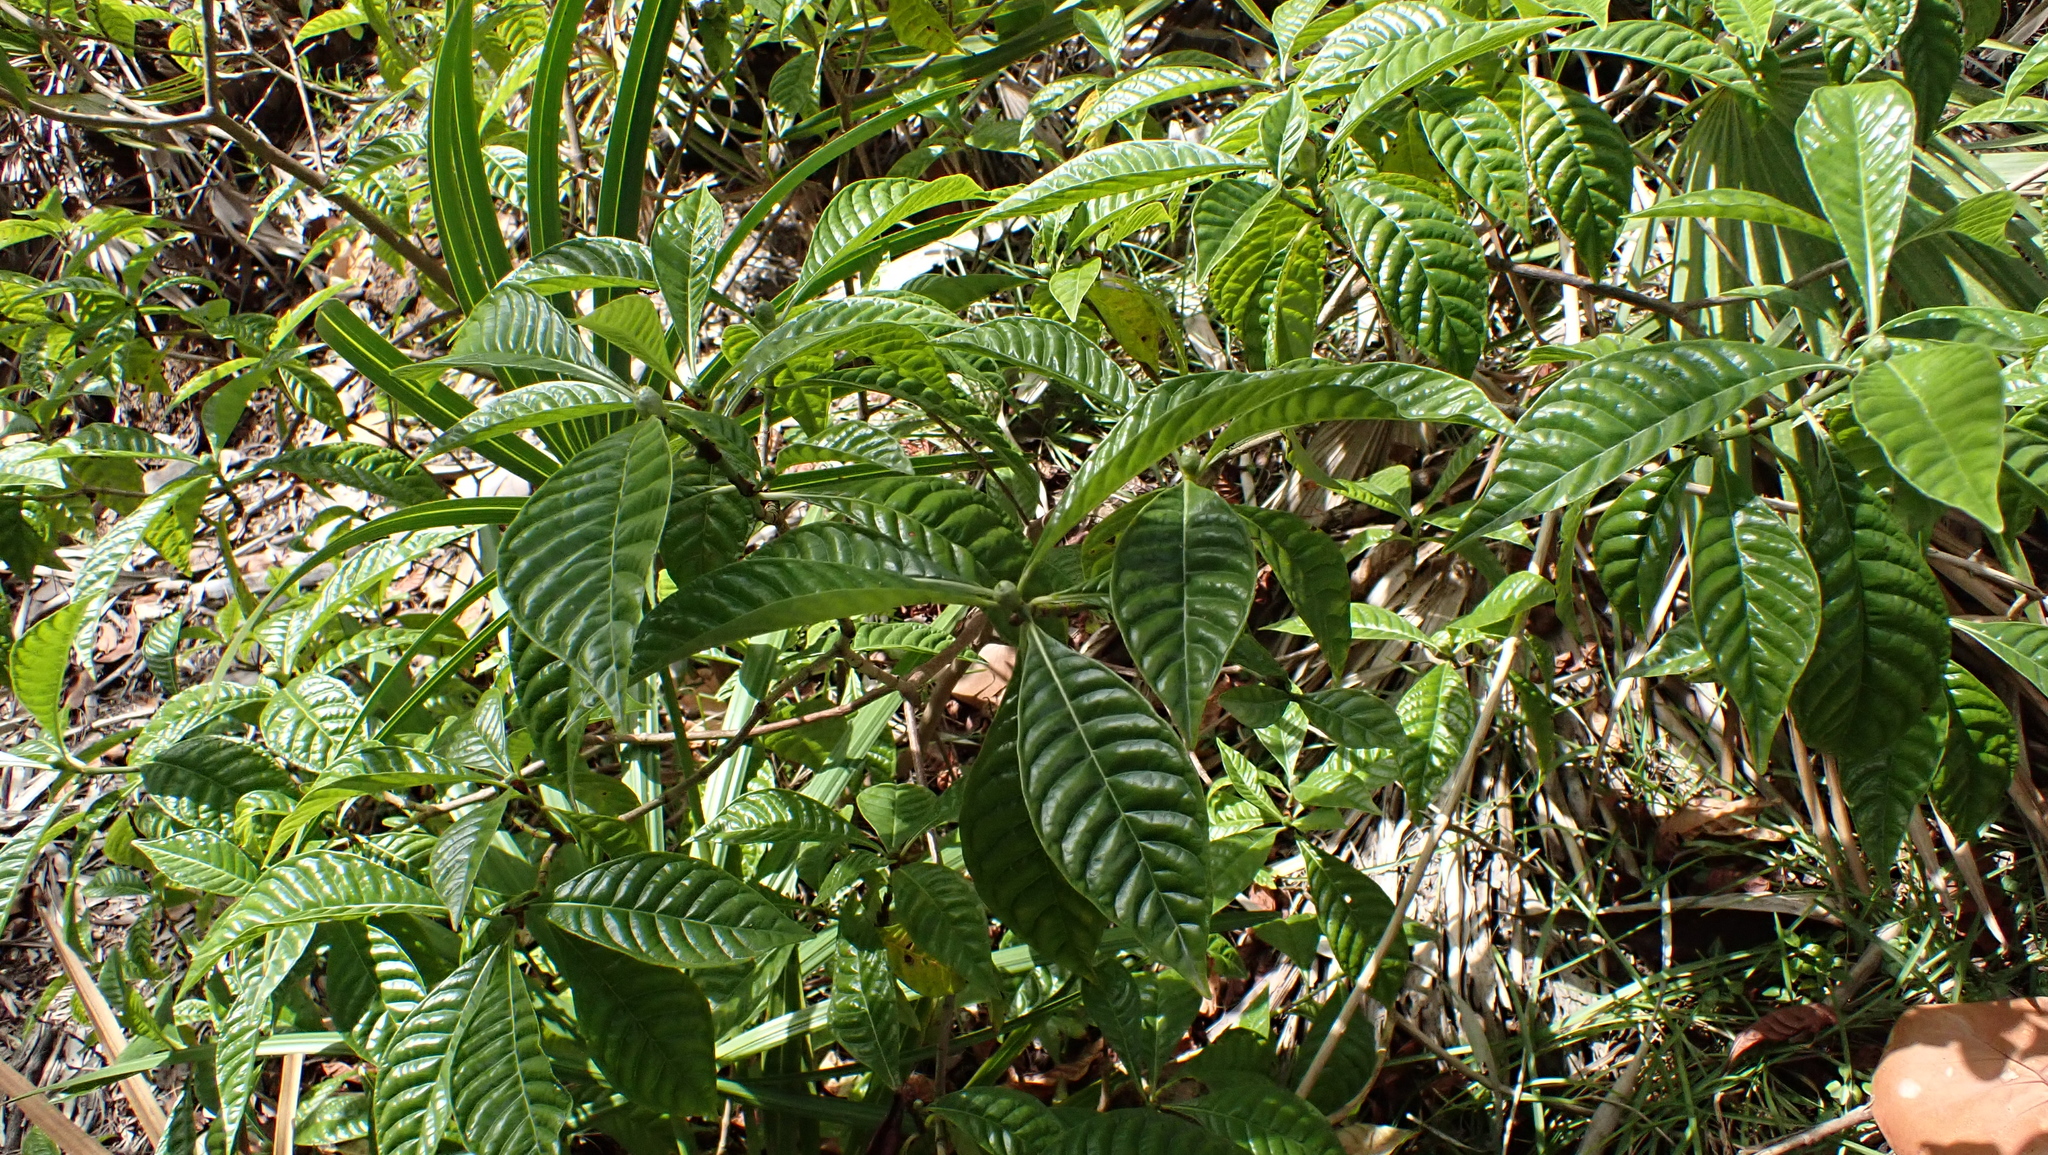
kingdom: Plantae
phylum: Tracheophyta
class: Magnoliopsida
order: Gentianales
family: Rubiaceae
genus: Psychotria
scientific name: Psychotria nervosa
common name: Bastard cankerberry
